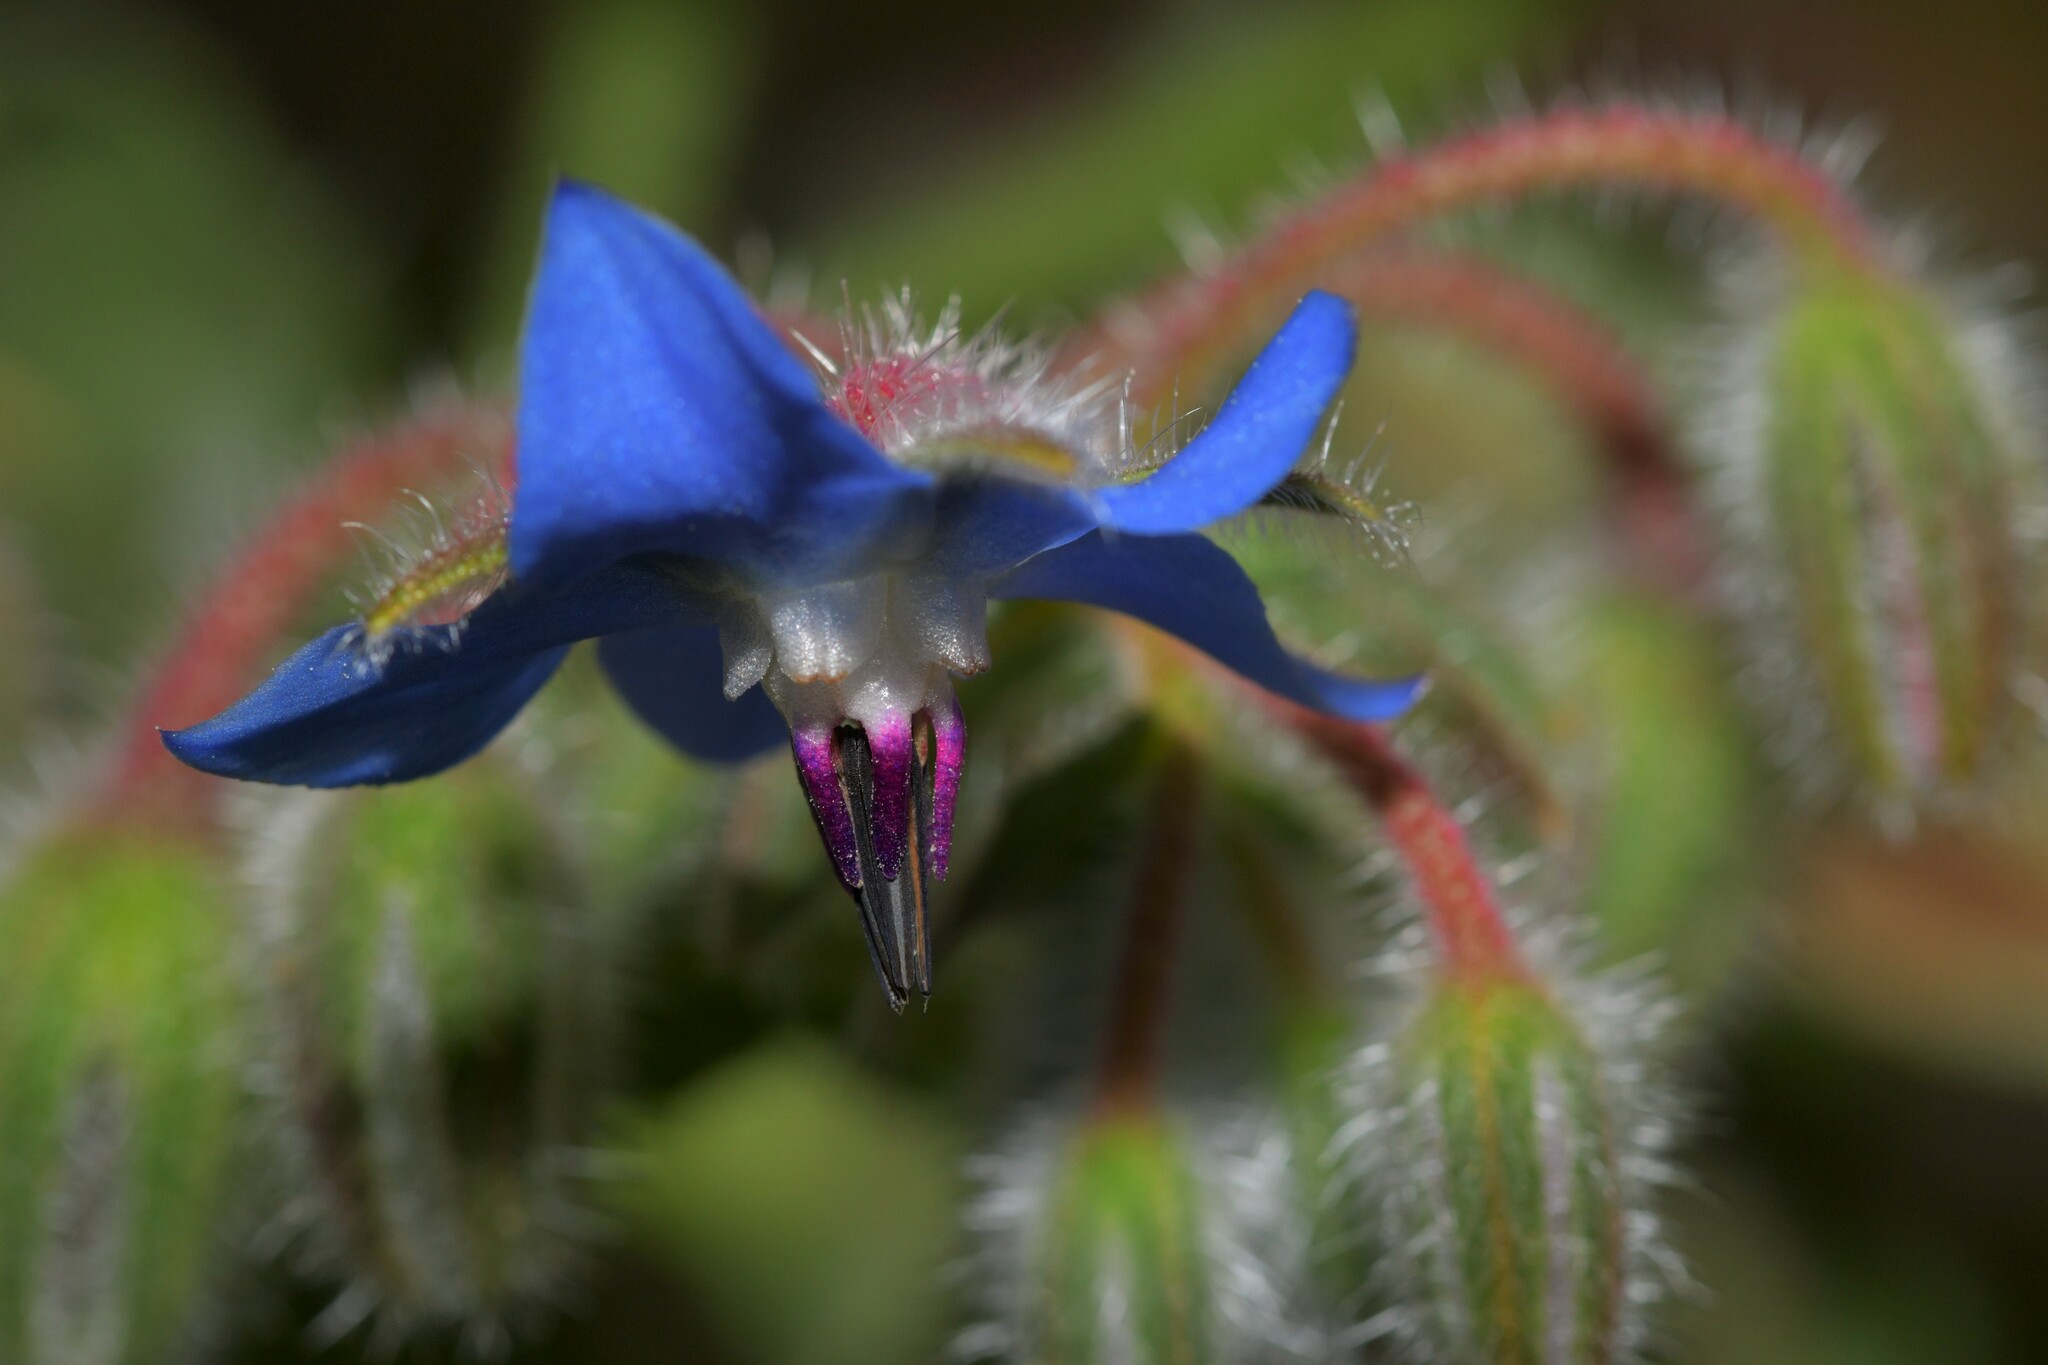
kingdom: Plantae
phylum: Tracheophyta
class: Magnoliopsida
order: Boraginales
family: Boraginaceae
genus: Borago
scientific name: Borago officinalis
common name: Borage
